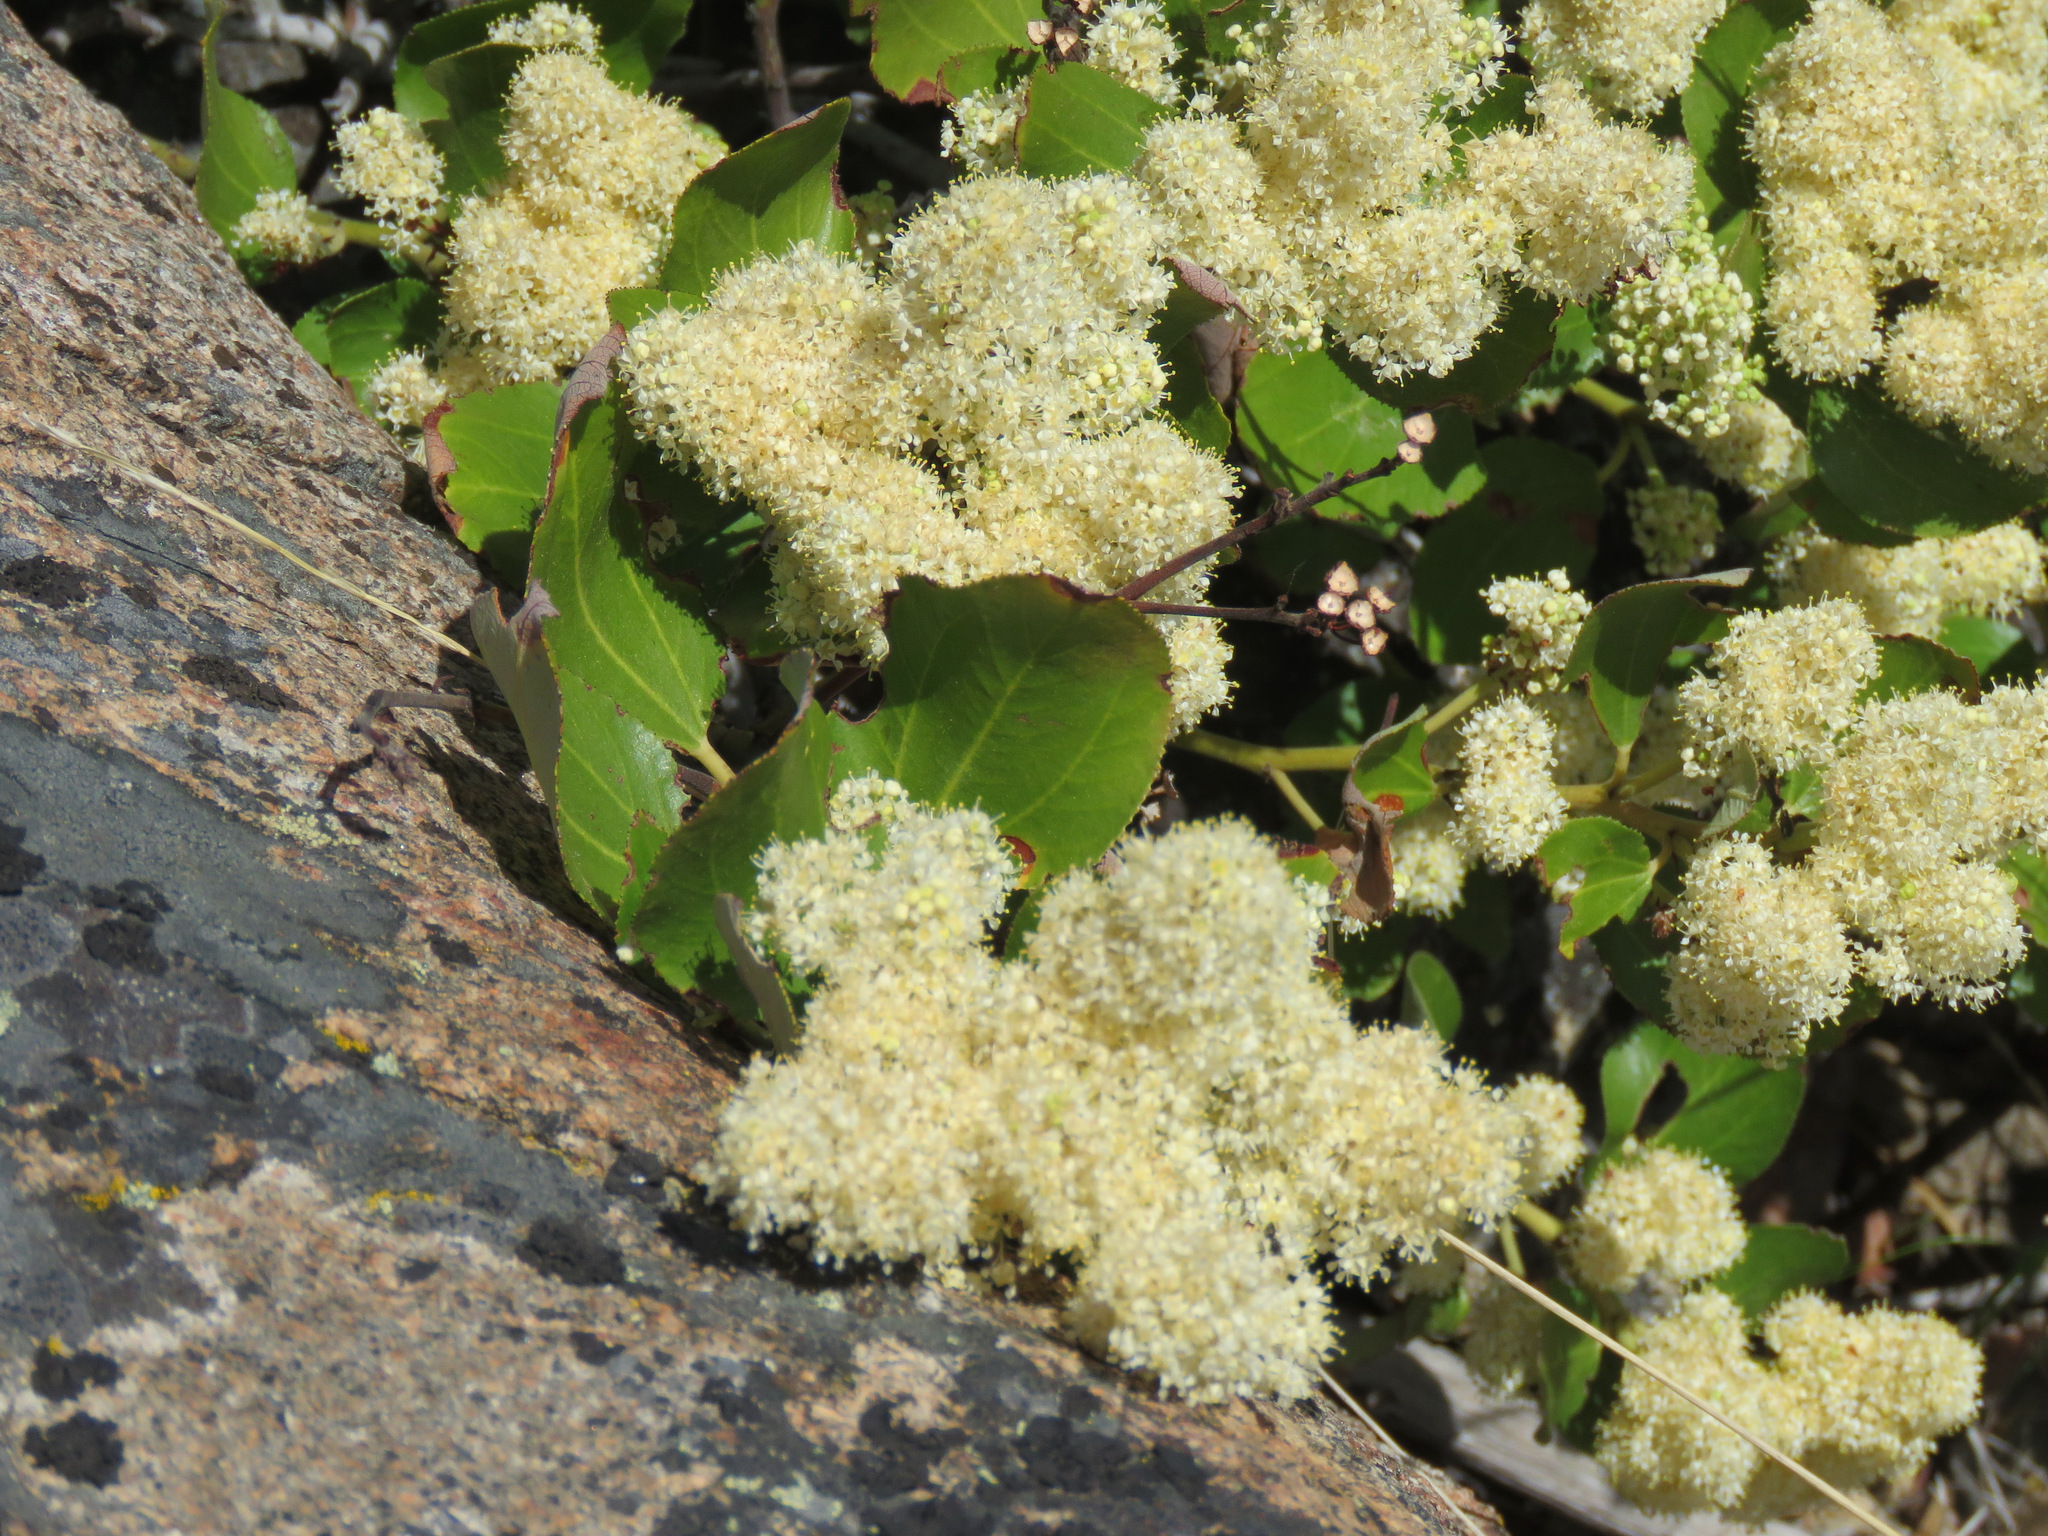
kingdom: Plantae
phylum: Tracheophyta
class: Magnoliopsida
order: Rosales
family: Rhamnaceae
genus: Ceanothus
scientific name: Ceanothus velutinus
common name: Snowbrush
